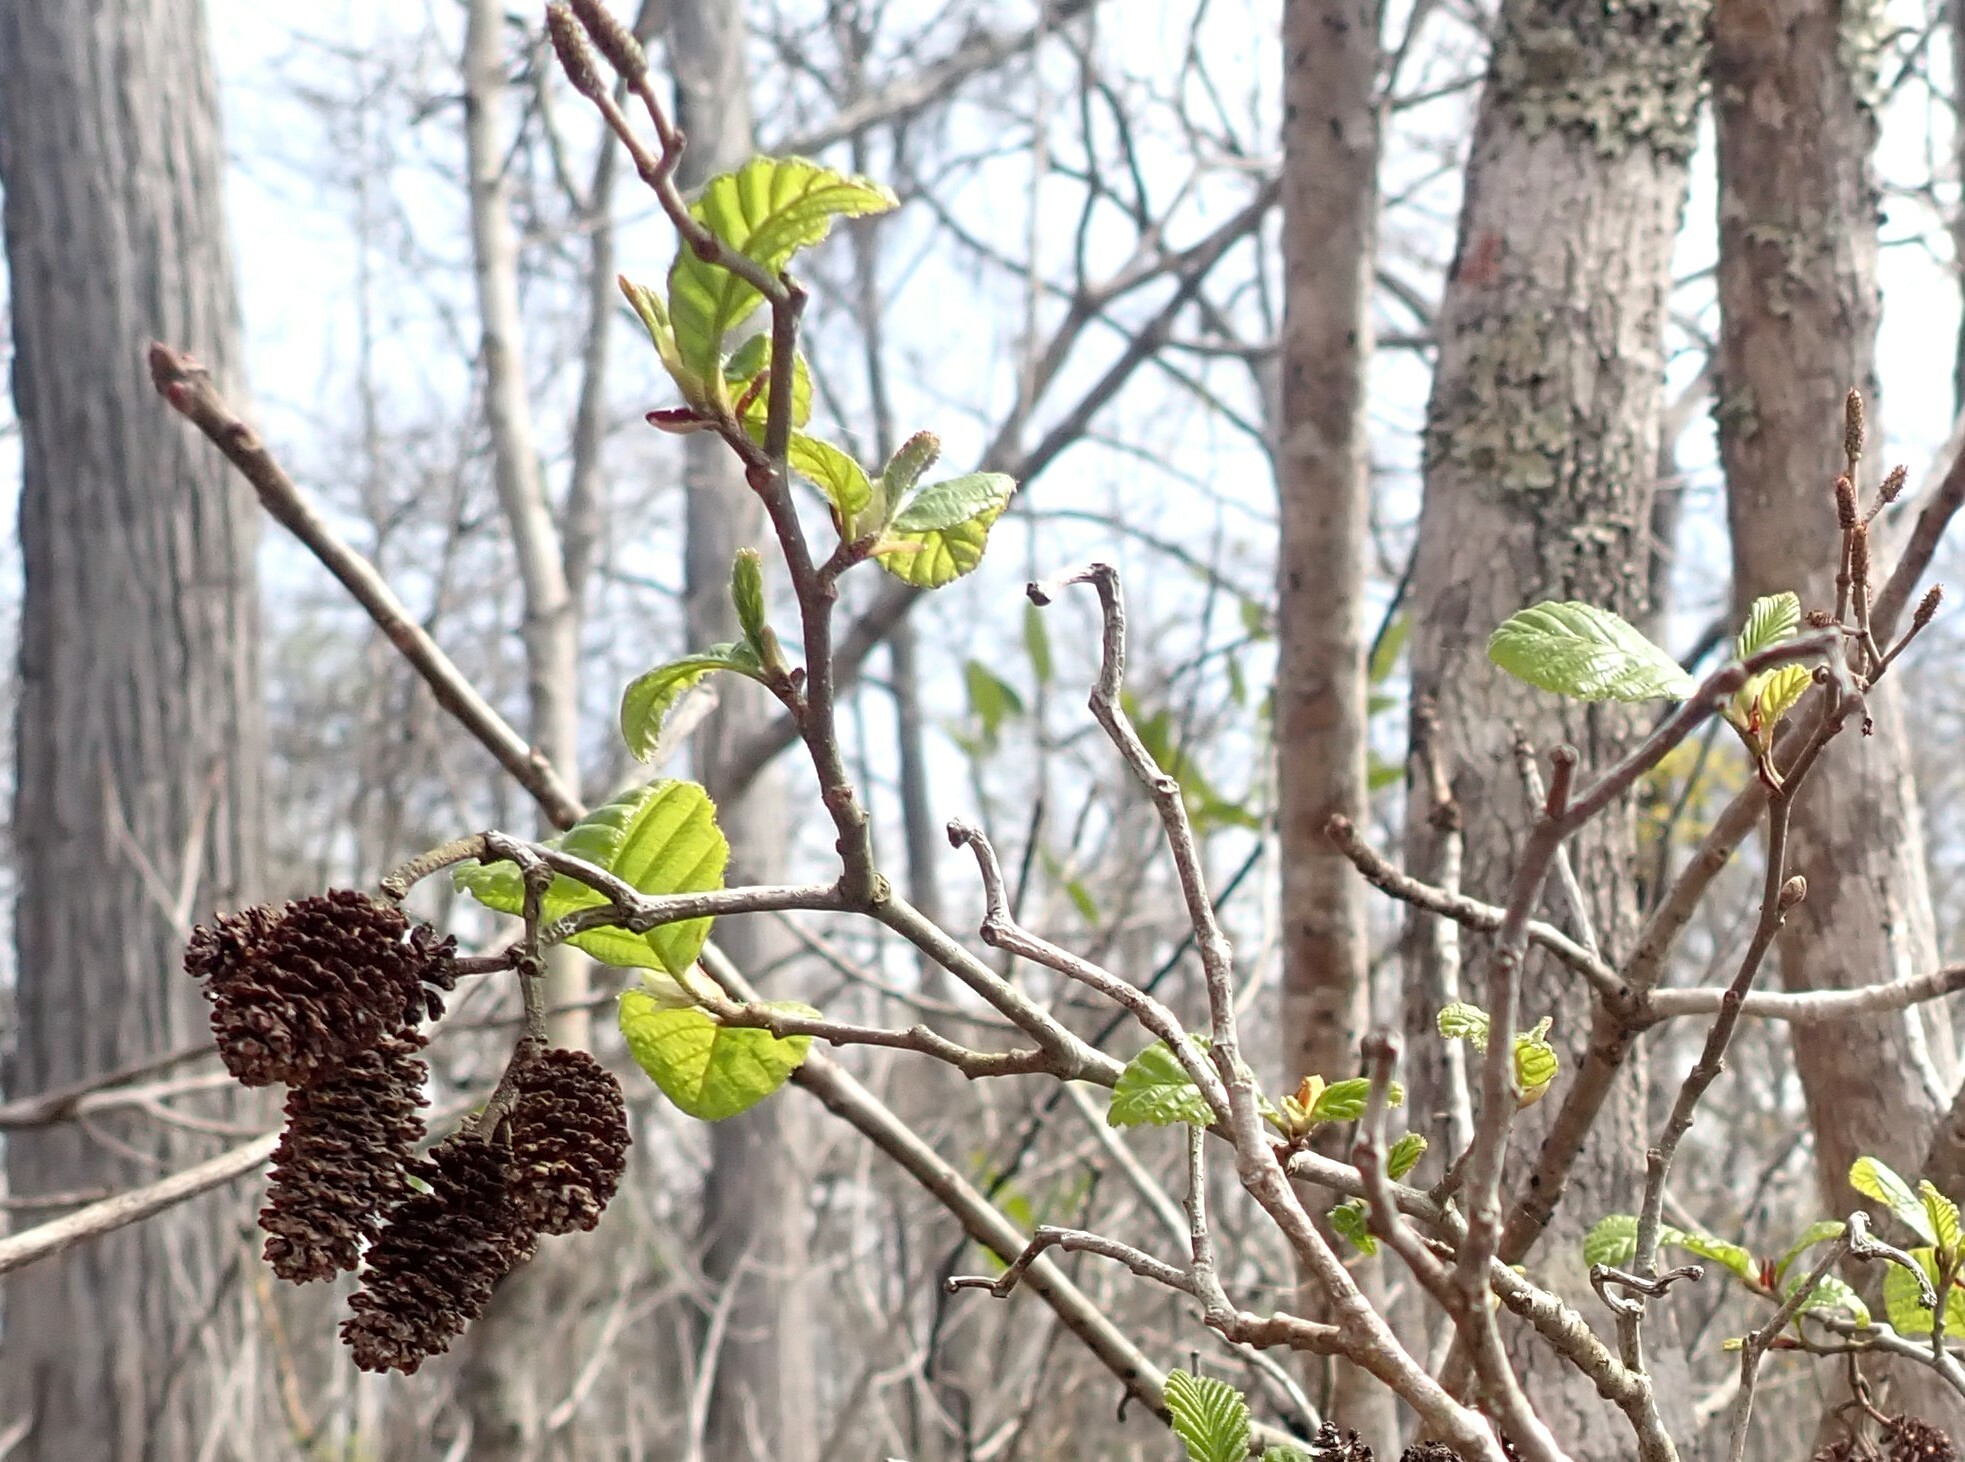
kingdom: Plantae
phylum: Tracheophyta
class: Magnoliopsida
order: Fagales
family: Betulaceae
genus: Alnus
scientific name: Alnus serrulata
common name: Hazel alder
